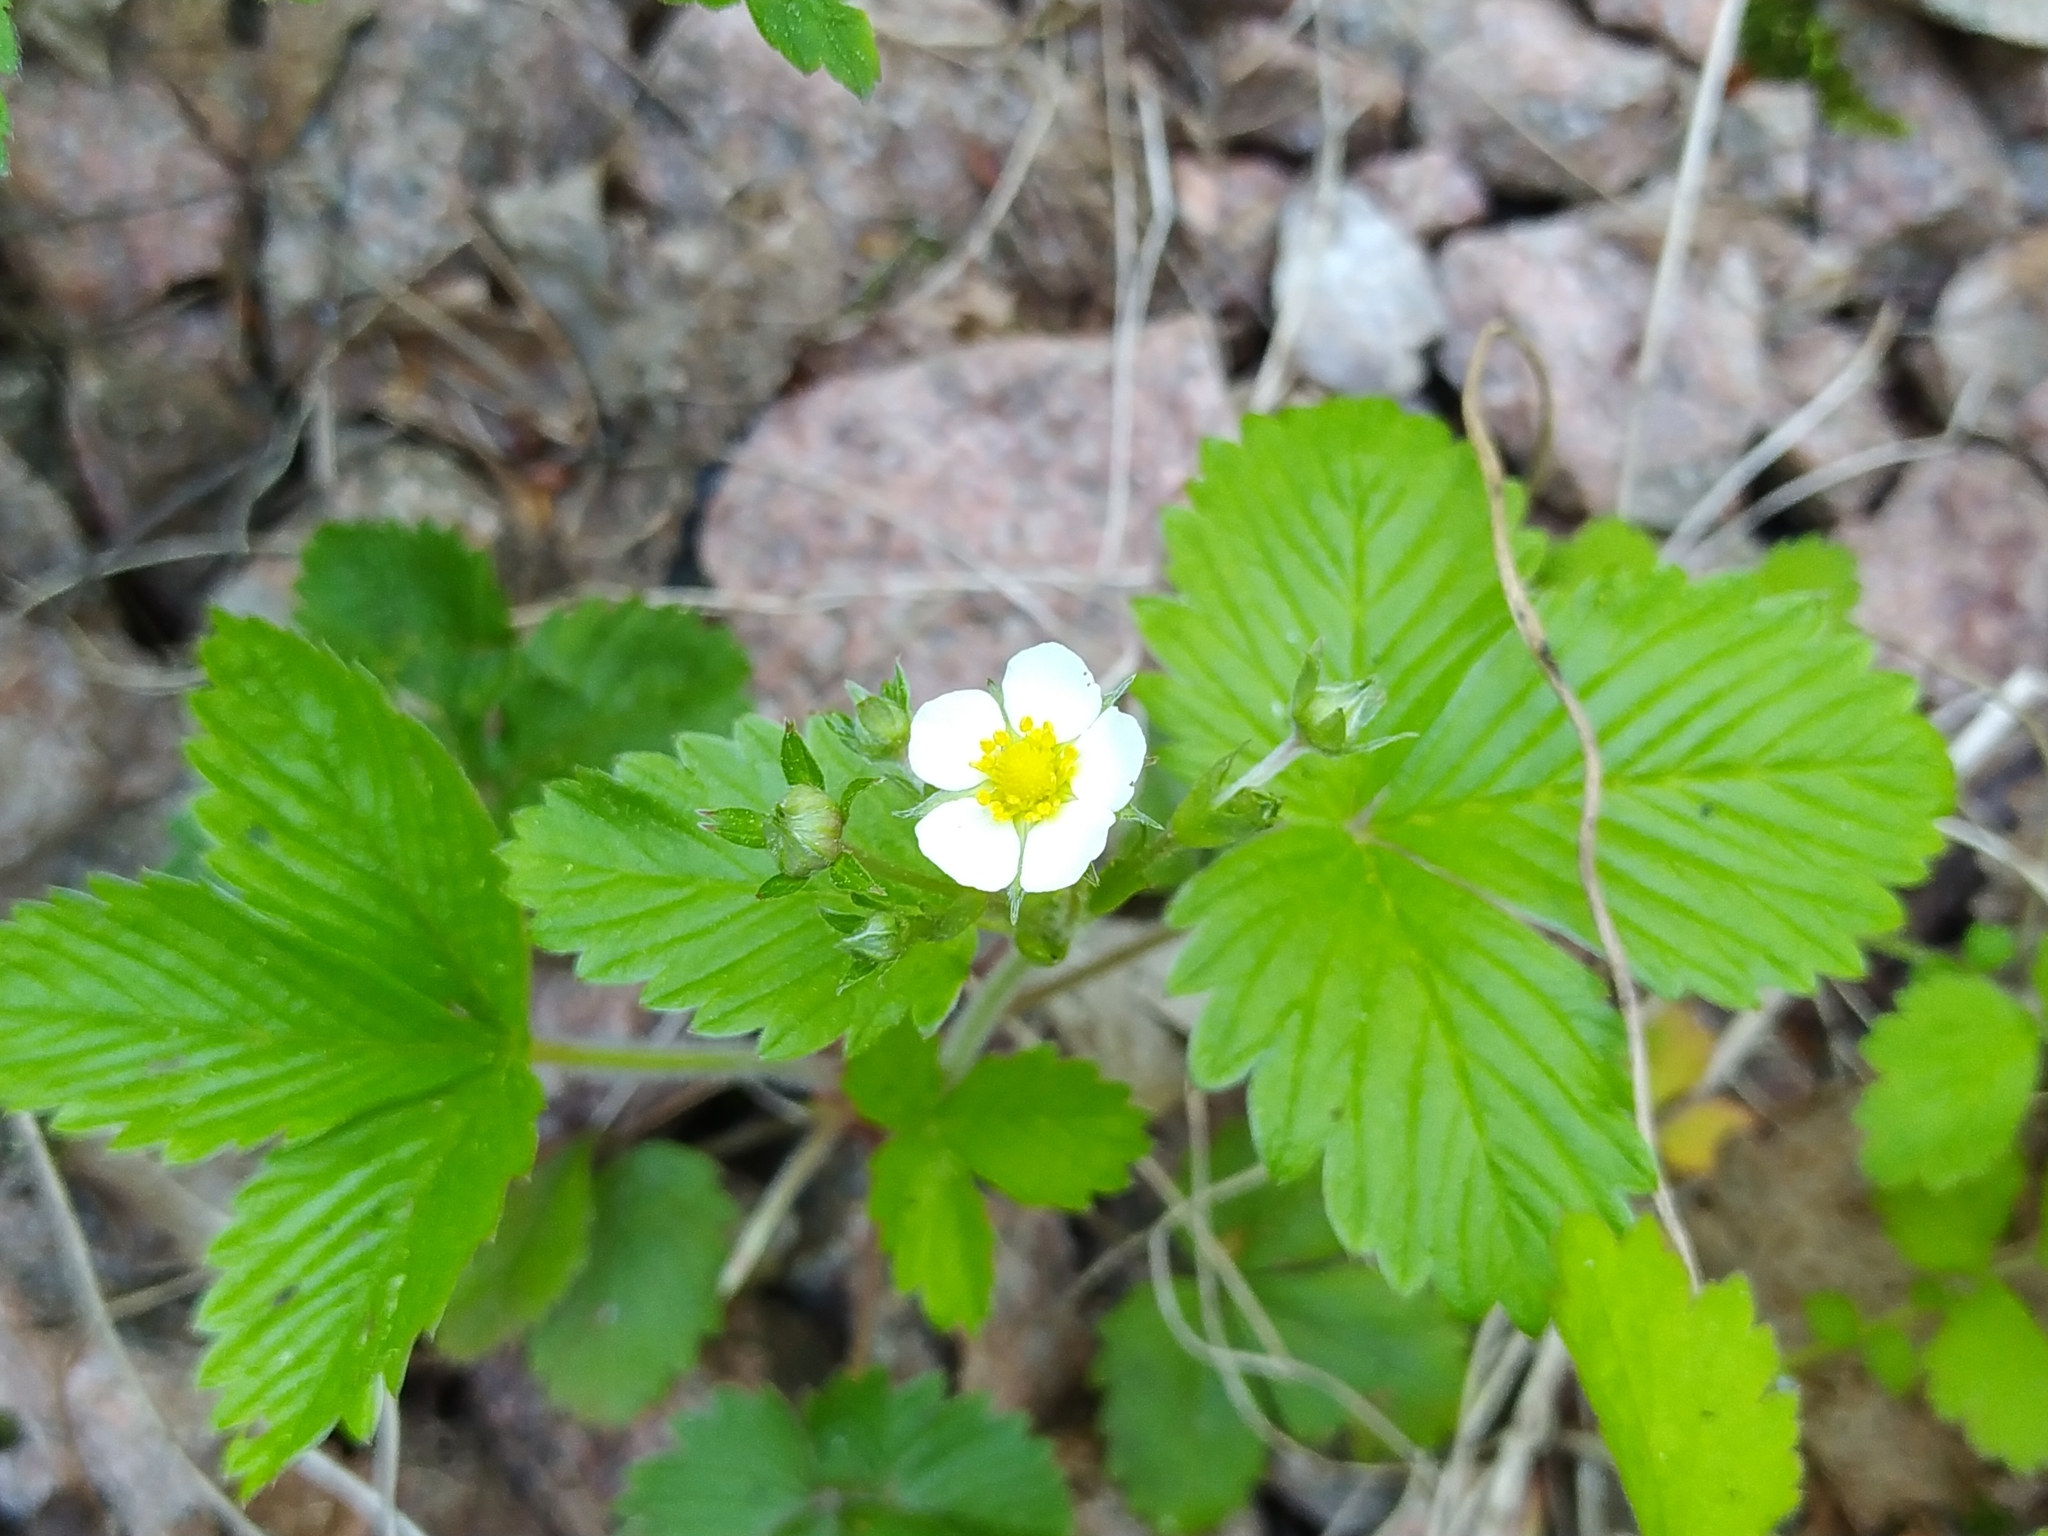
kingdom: Plantae
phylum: Tracheophyta
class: Magnoliopsida
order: Rosales
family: Rosaceae
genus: Fragaria
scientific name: Fragaria vesca
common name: Wild strawberry
